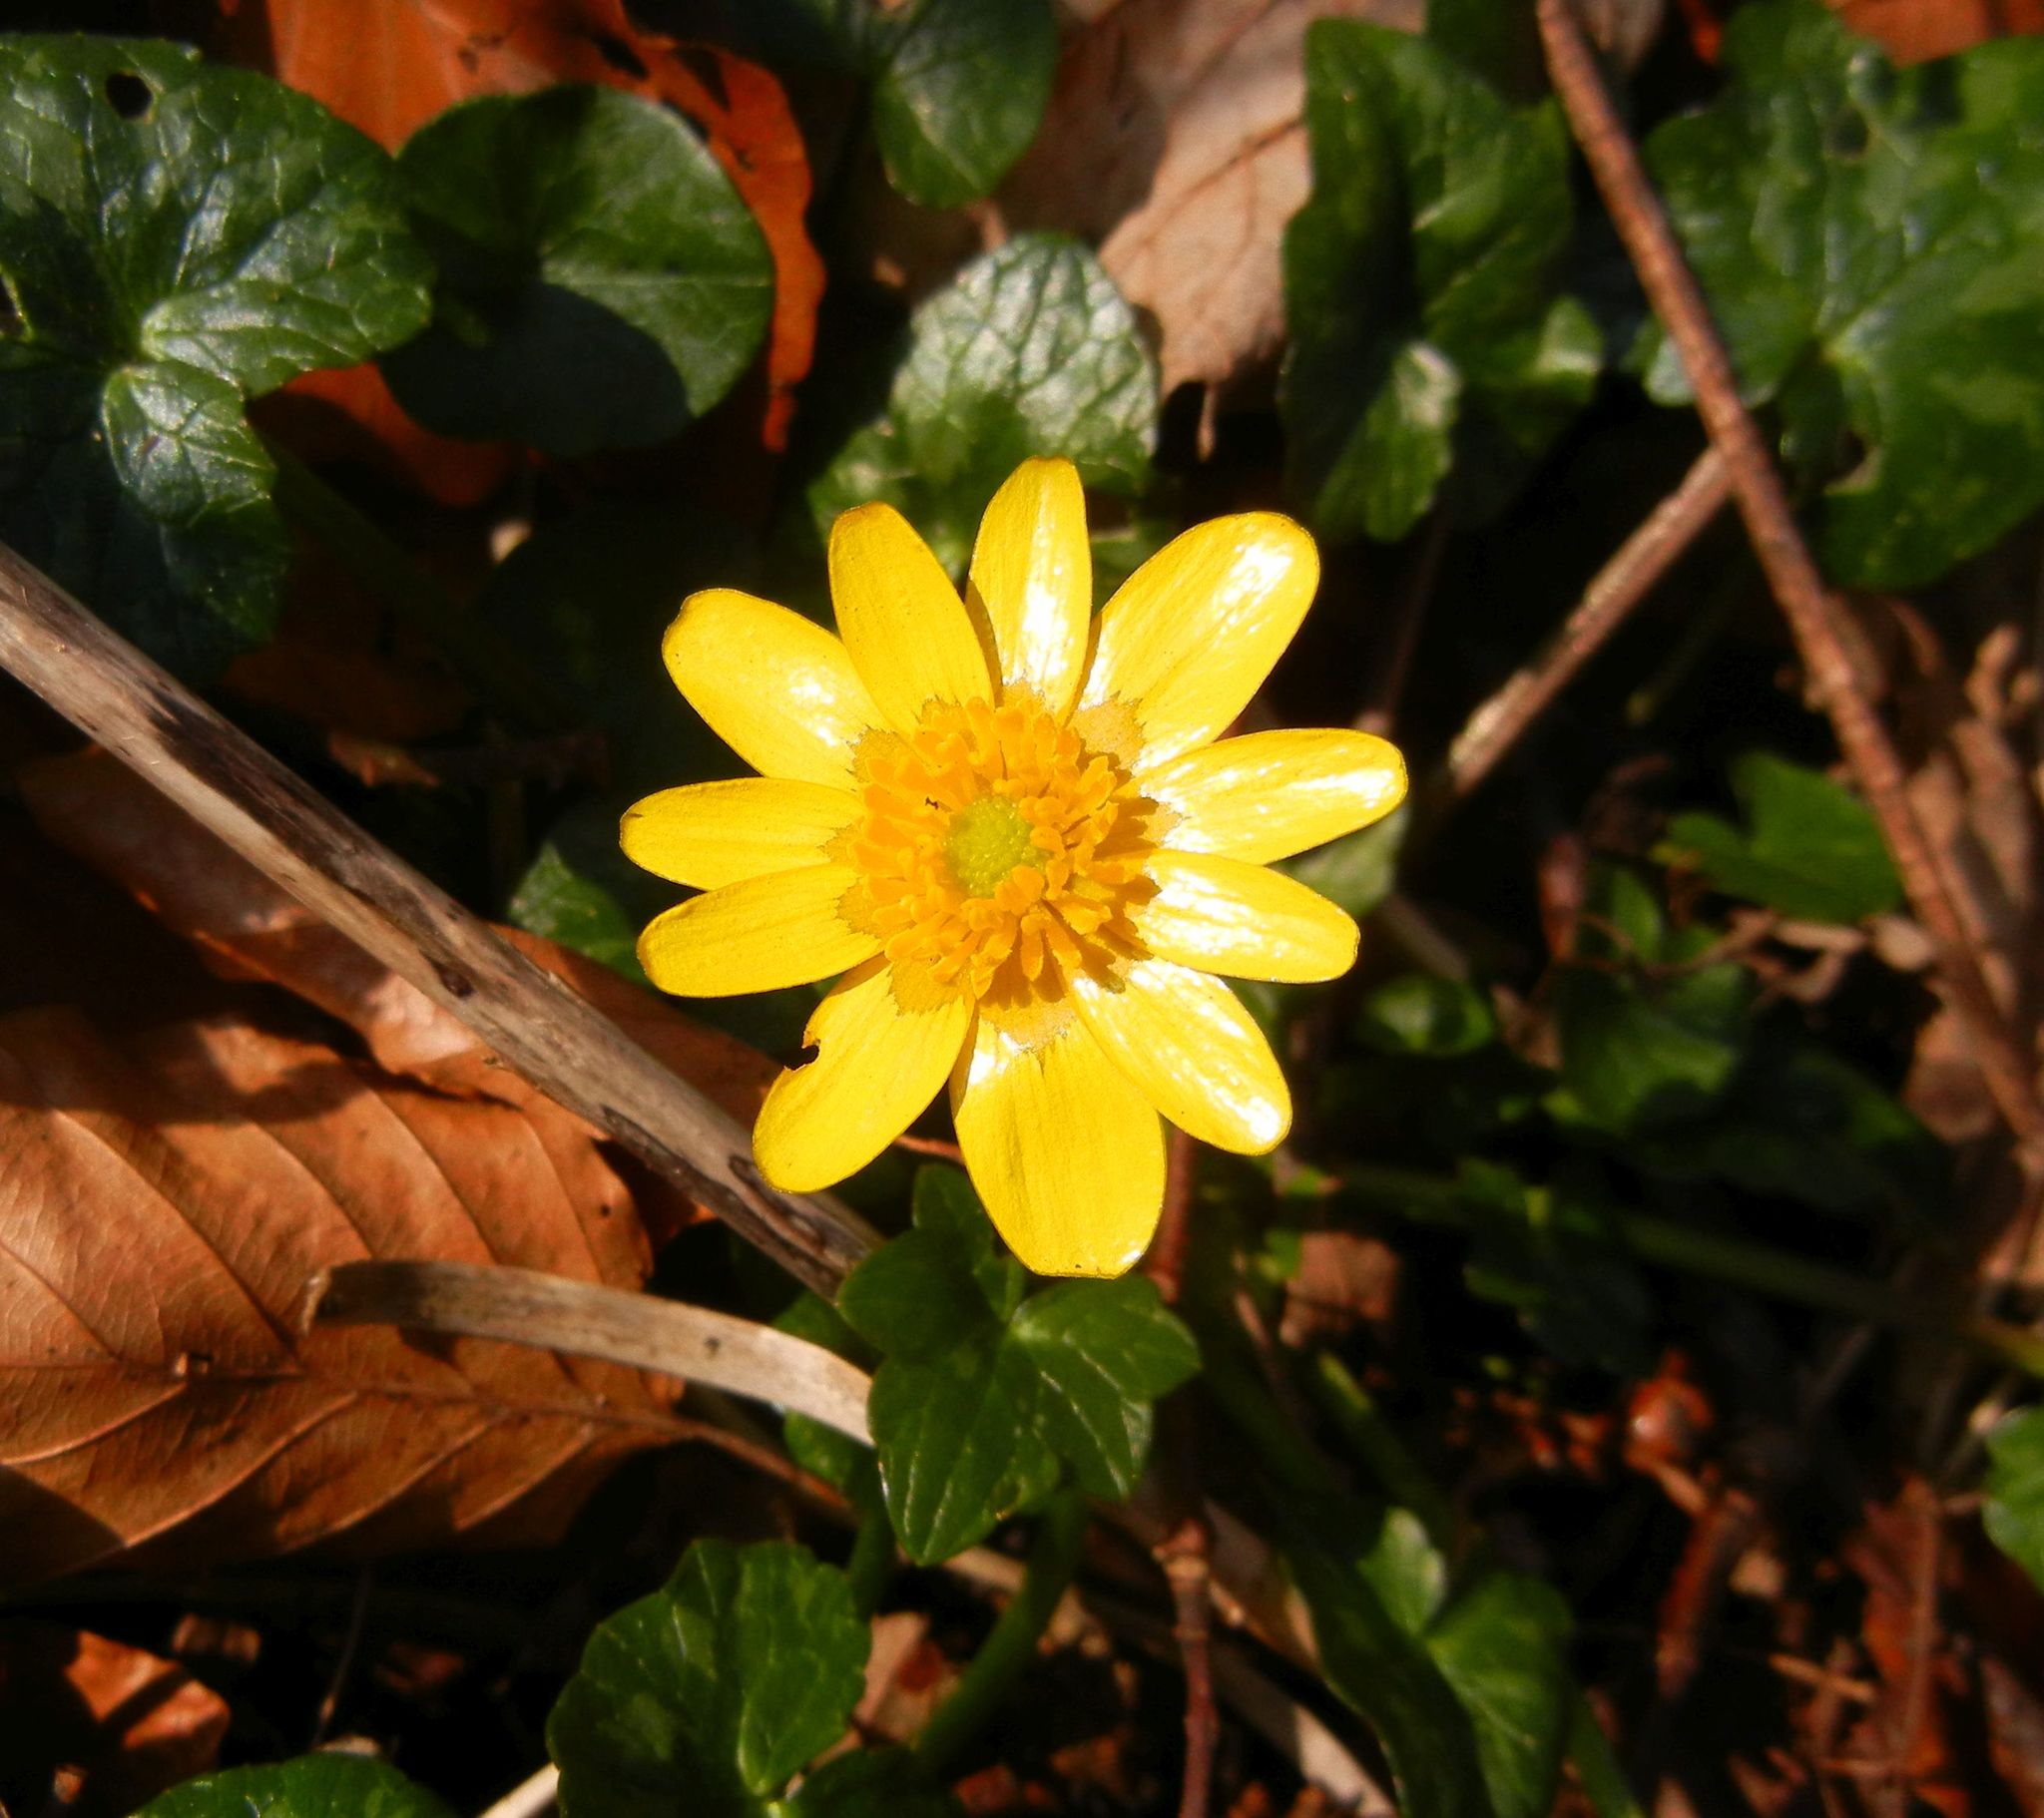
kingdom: Plantae
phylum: Tracheophyta
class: Magnoliopsida
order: Ranunculales
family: Ranunculaceae
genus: Ficaria
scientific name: Ficaria verna
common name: Lesser celandine
